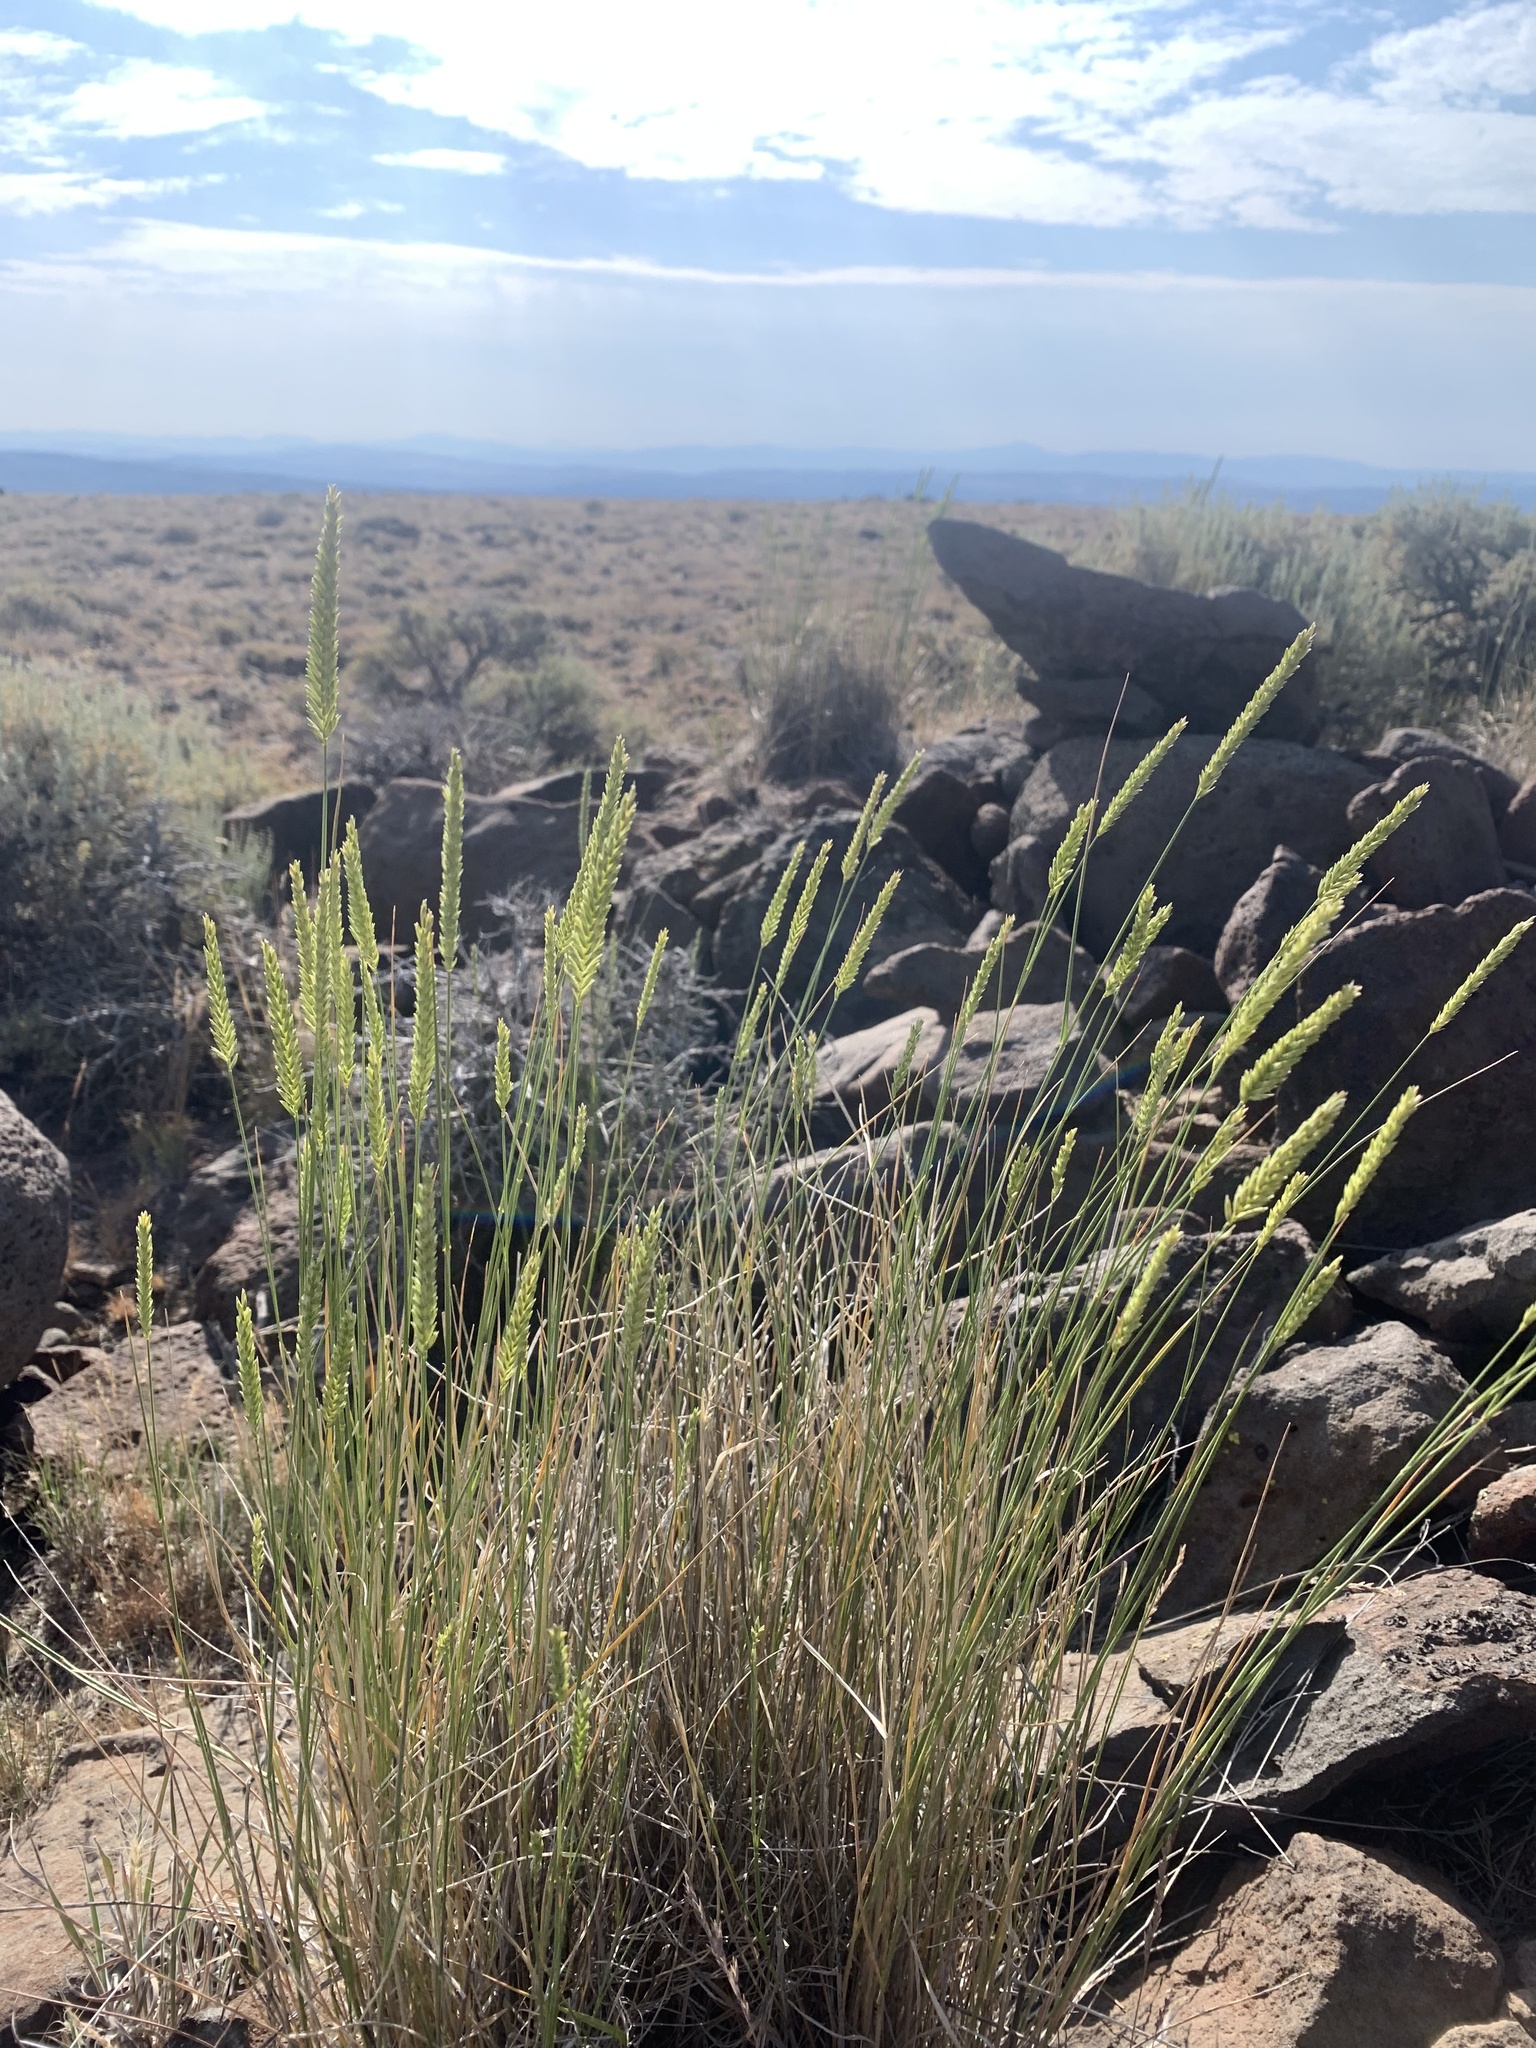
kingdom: Plantae
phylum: Tracheophyta
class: Liliopsida
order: Poales
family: Poaceae
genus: Agropyron
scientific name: Agropyron cristatum
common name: Crested wheatgrass
